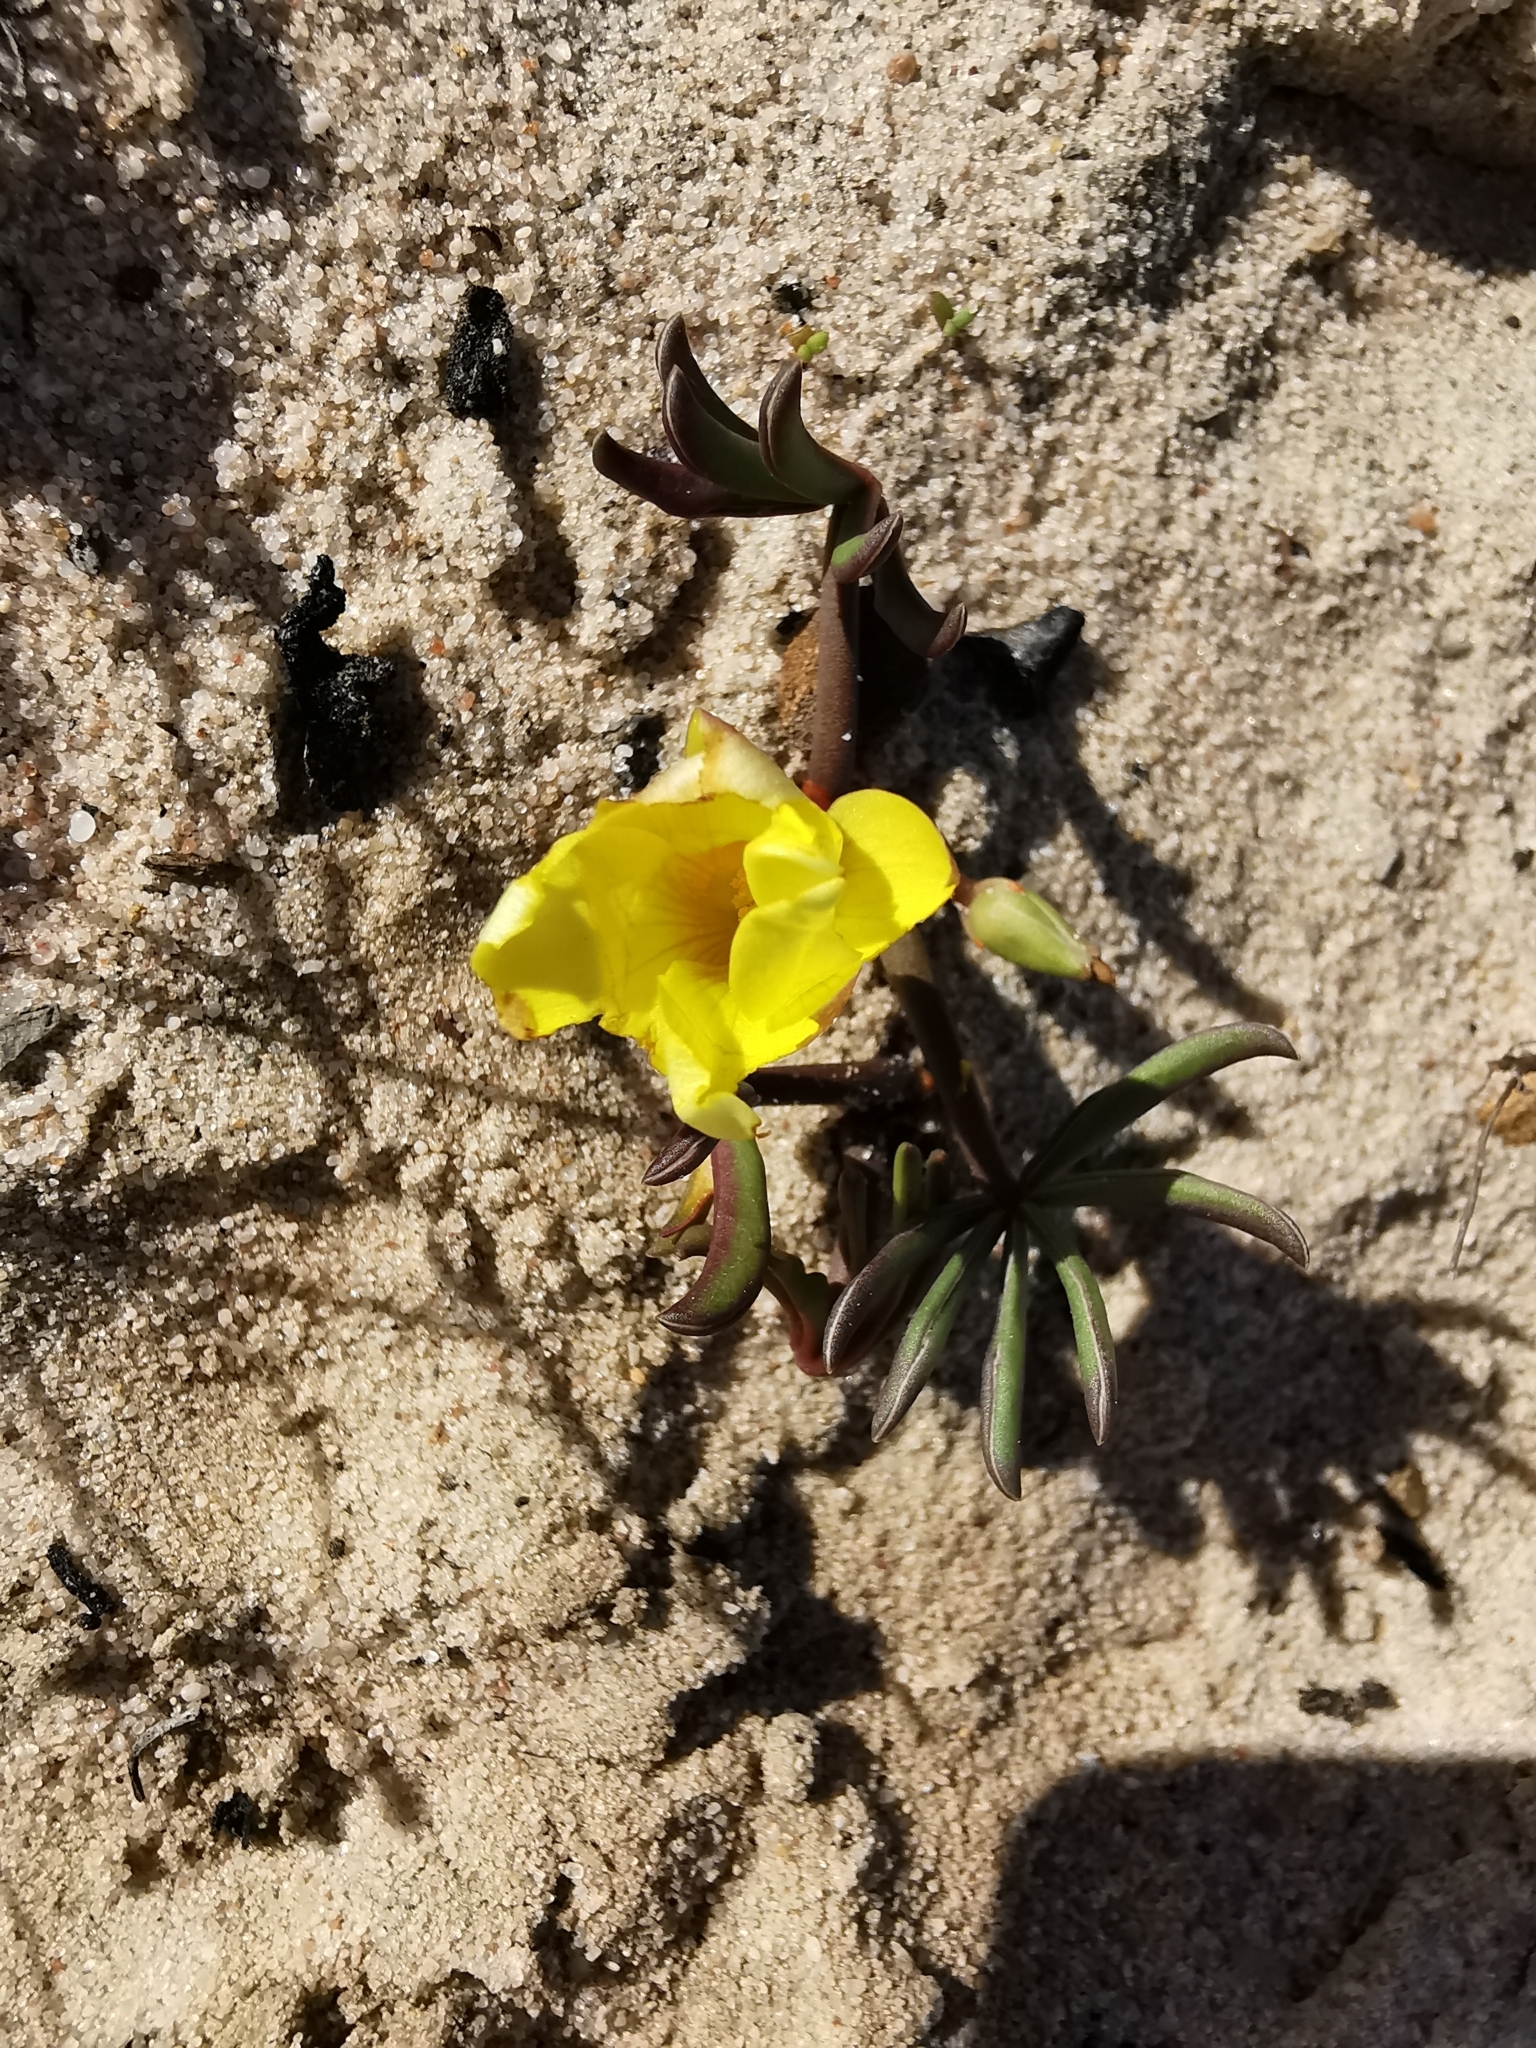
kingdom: Plantae
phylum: Tracheophyta
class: Magnoliopsida
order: Oxalidales
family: Oxalidaceae
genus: Oxalis
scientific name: Oxalis flava
